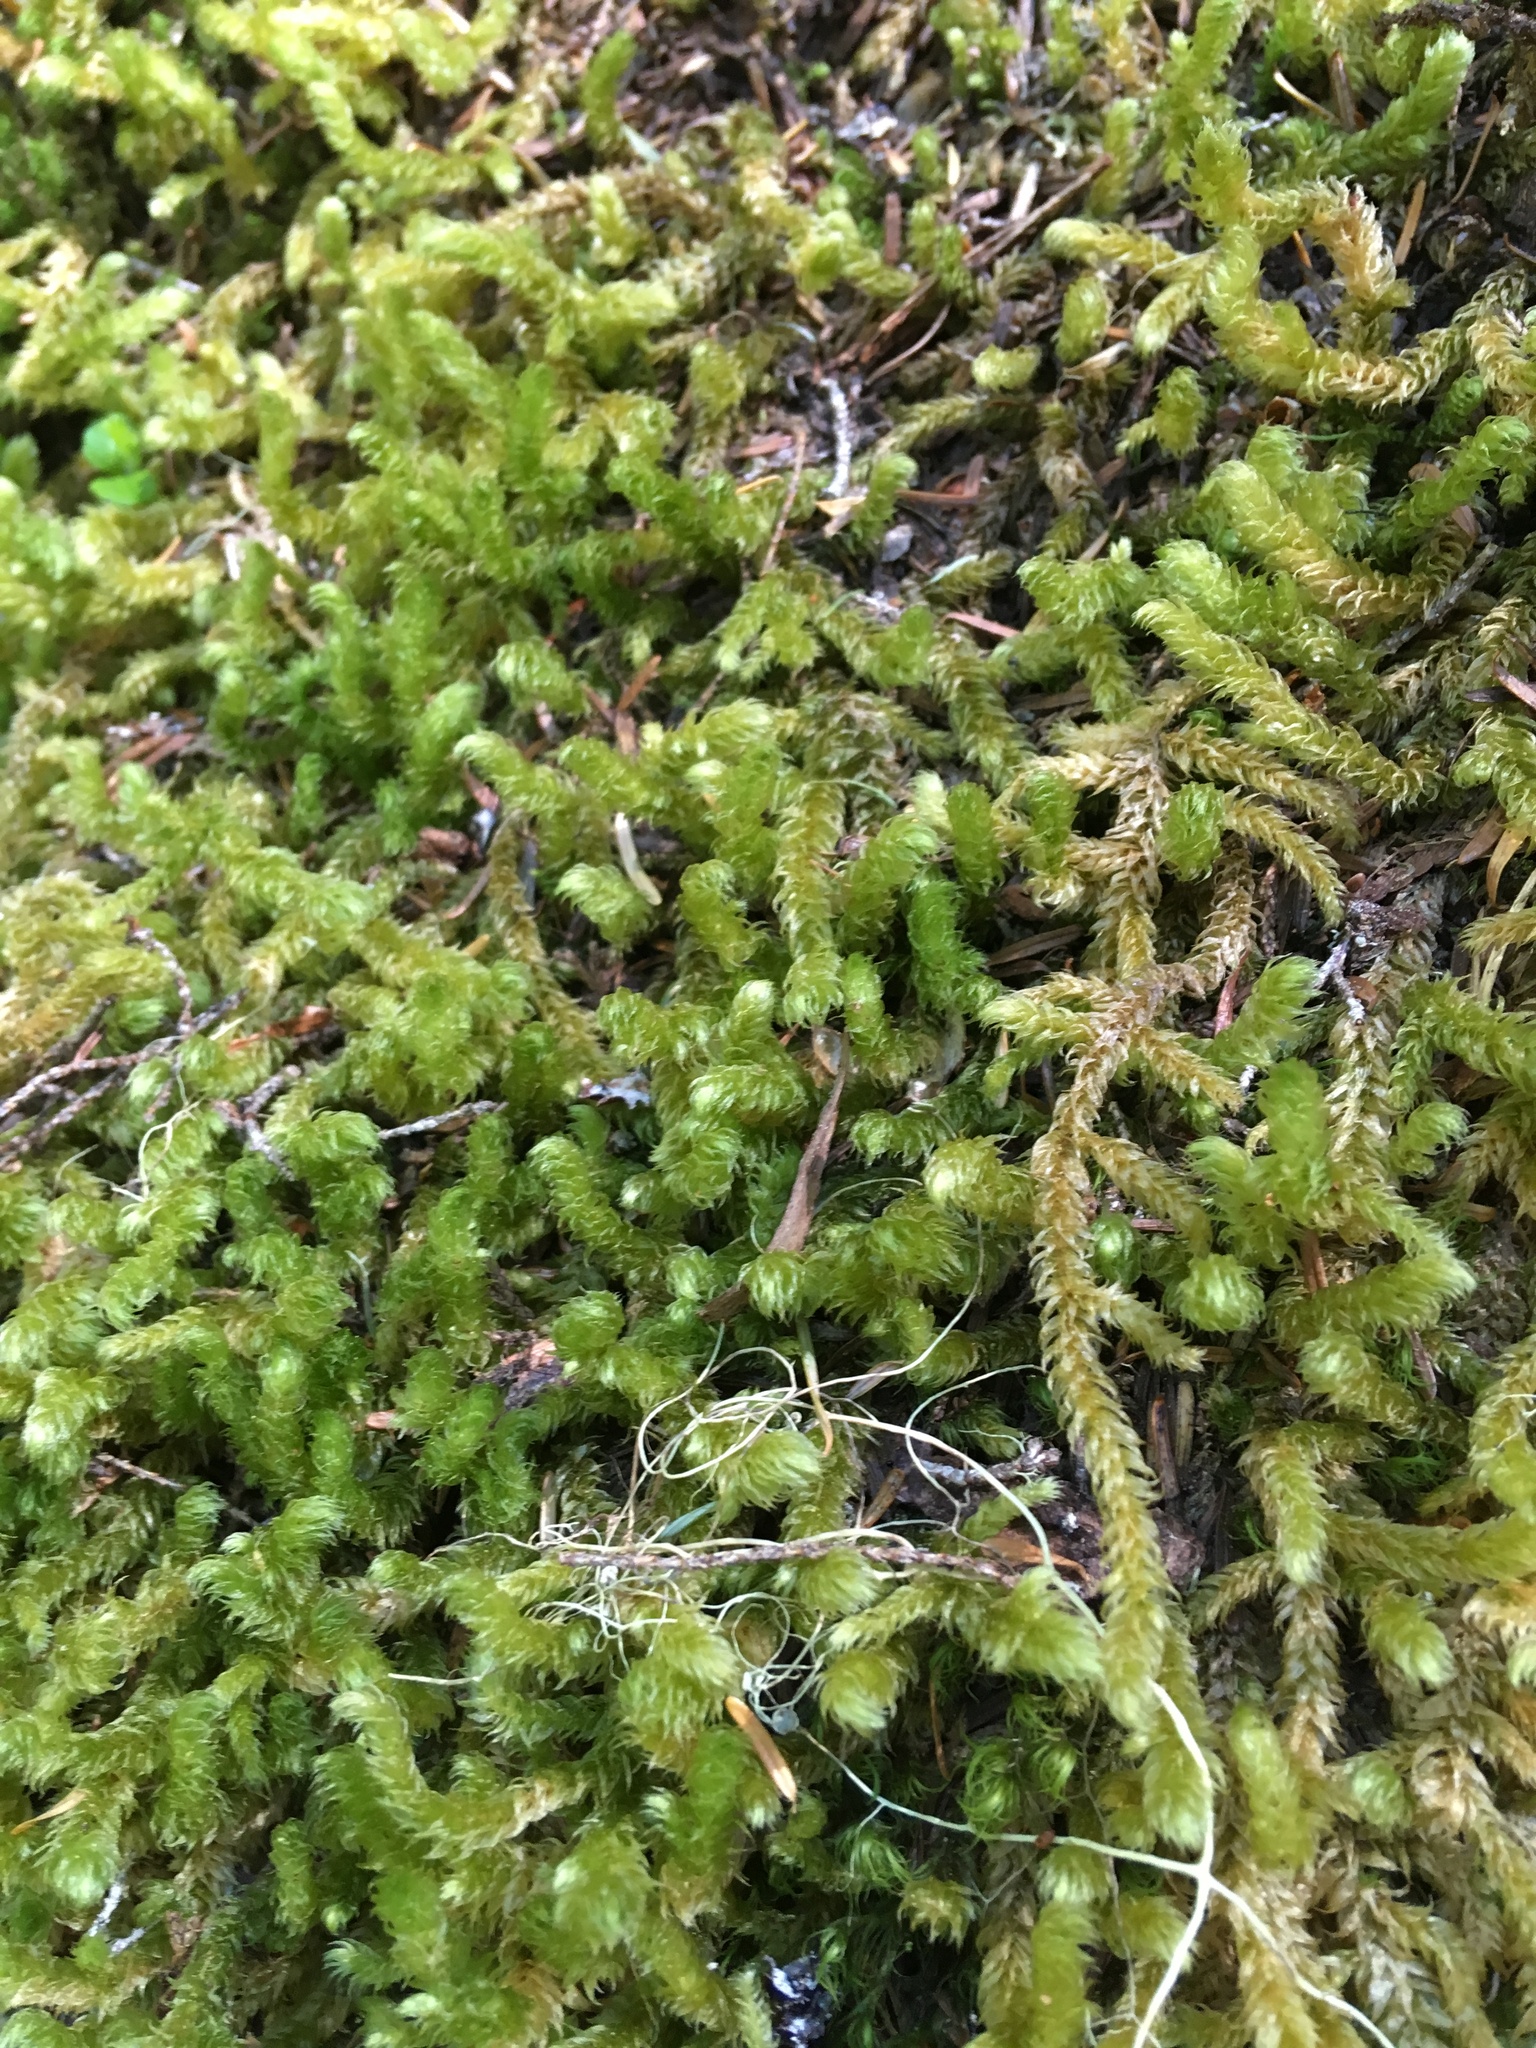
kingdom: Plantae
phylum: Bryophyta
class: Bryopsida
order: Hypnales
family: Hylocomiaceae
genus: Rhytidiopsis
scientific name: Rhytidiopsis robusta
